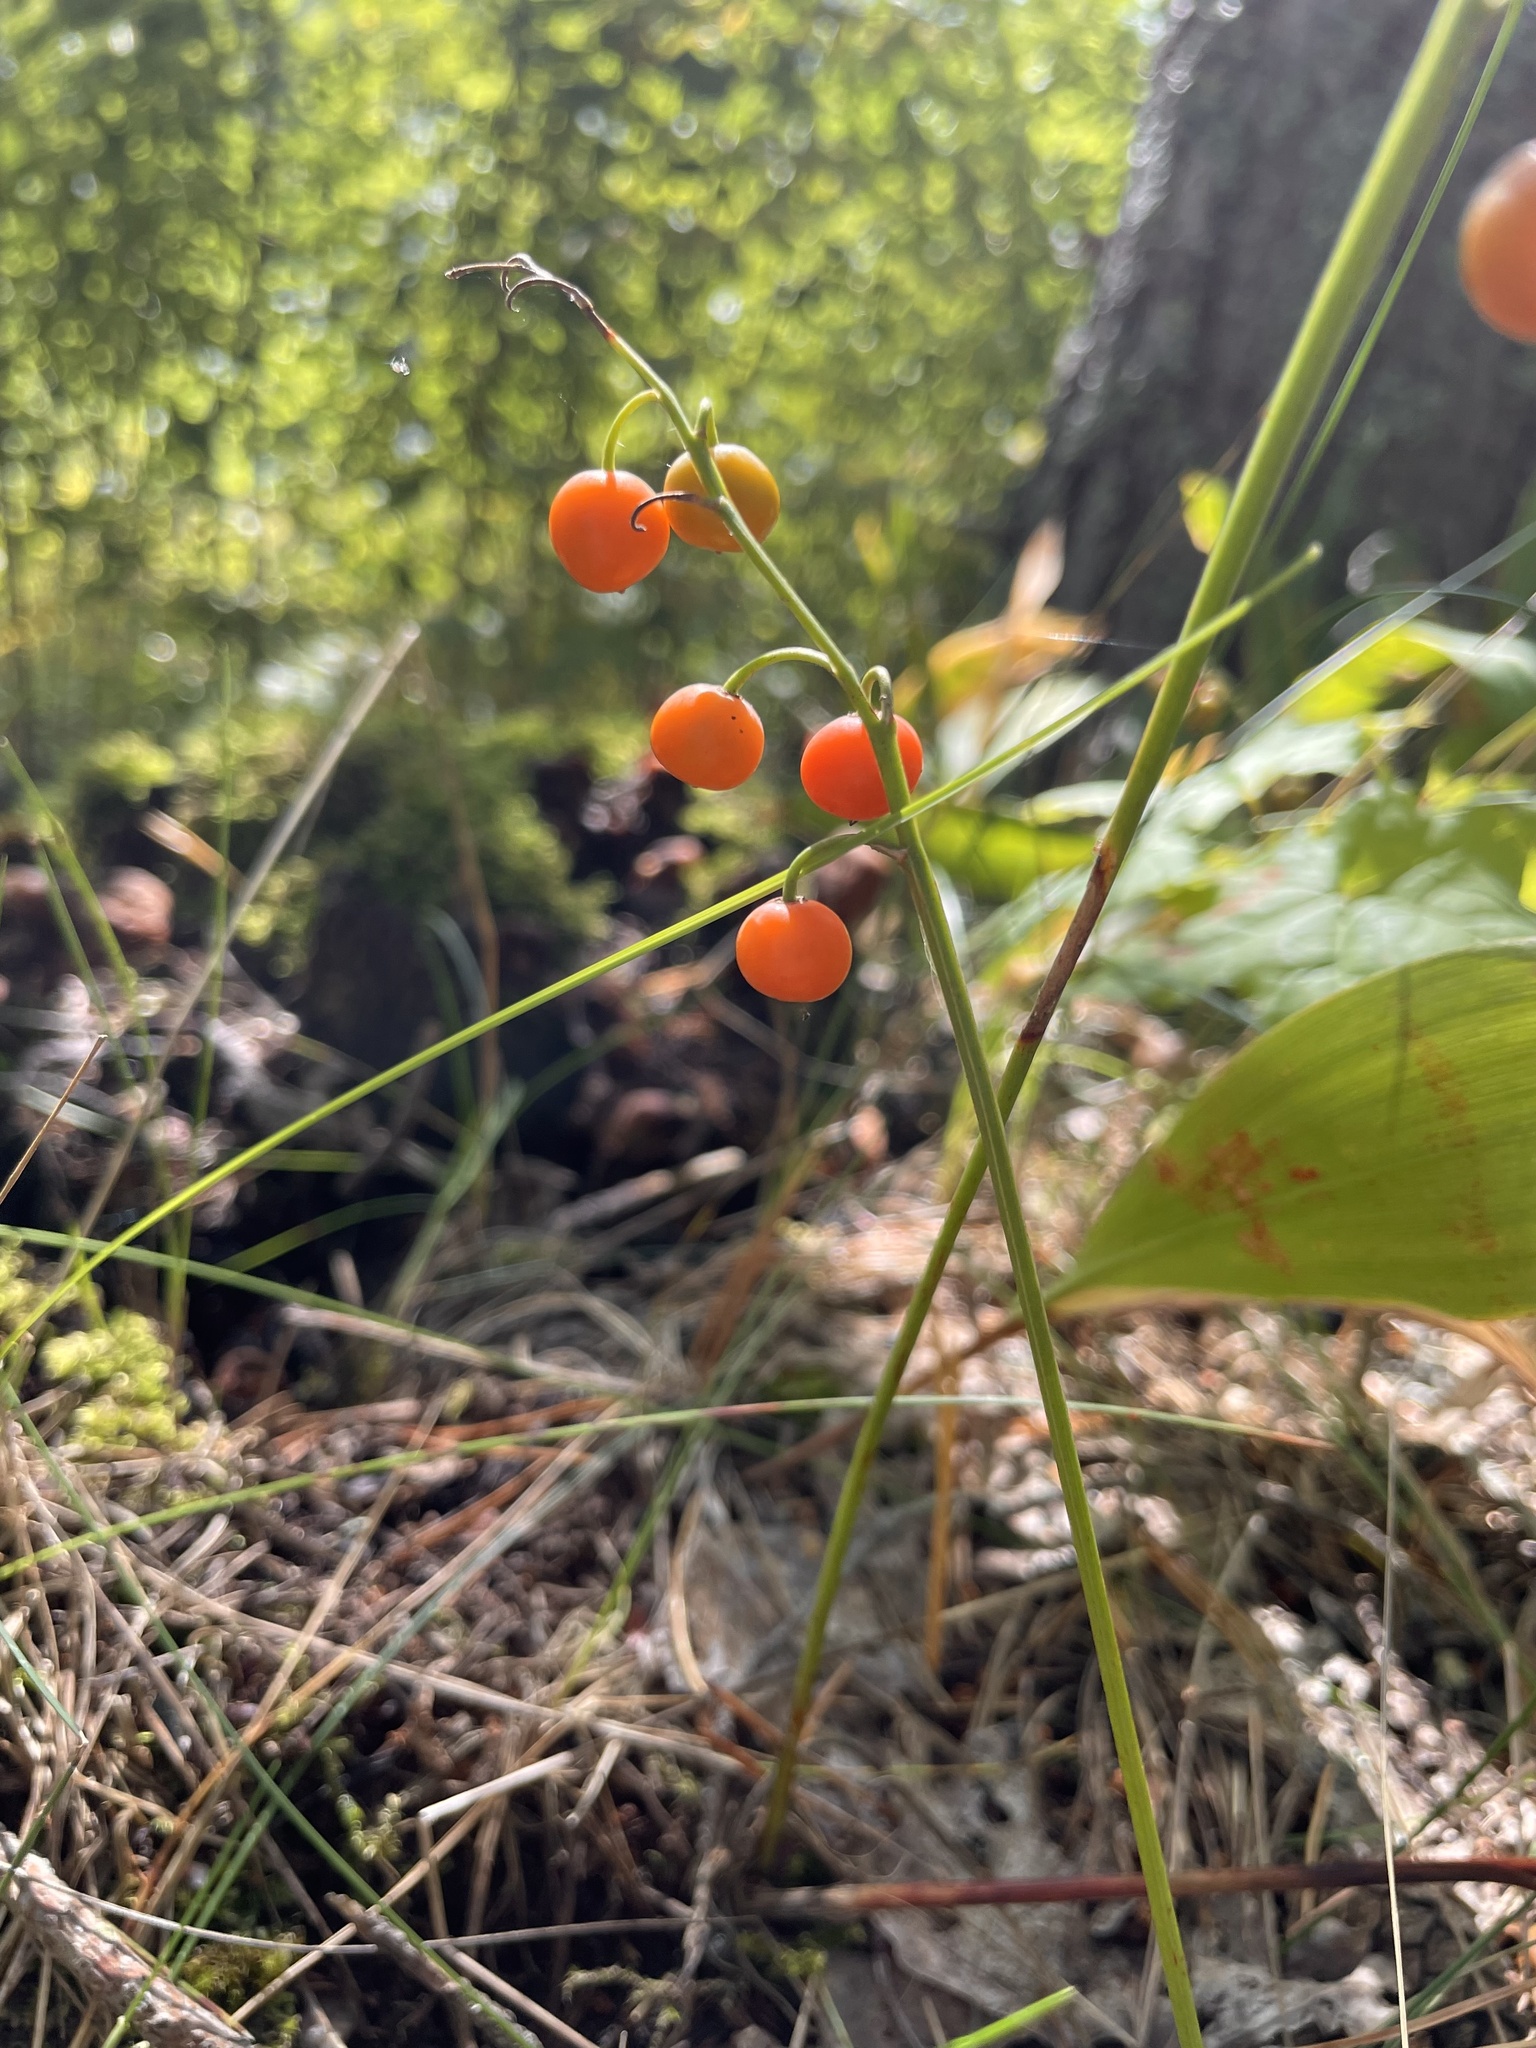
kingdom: Plantae
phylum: Tracheophyta
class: Liliopsida
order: Asparagales
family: Asparagaceae
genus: Convallaria
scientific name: Convallaria majalis
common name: Lily-of-the-valley
